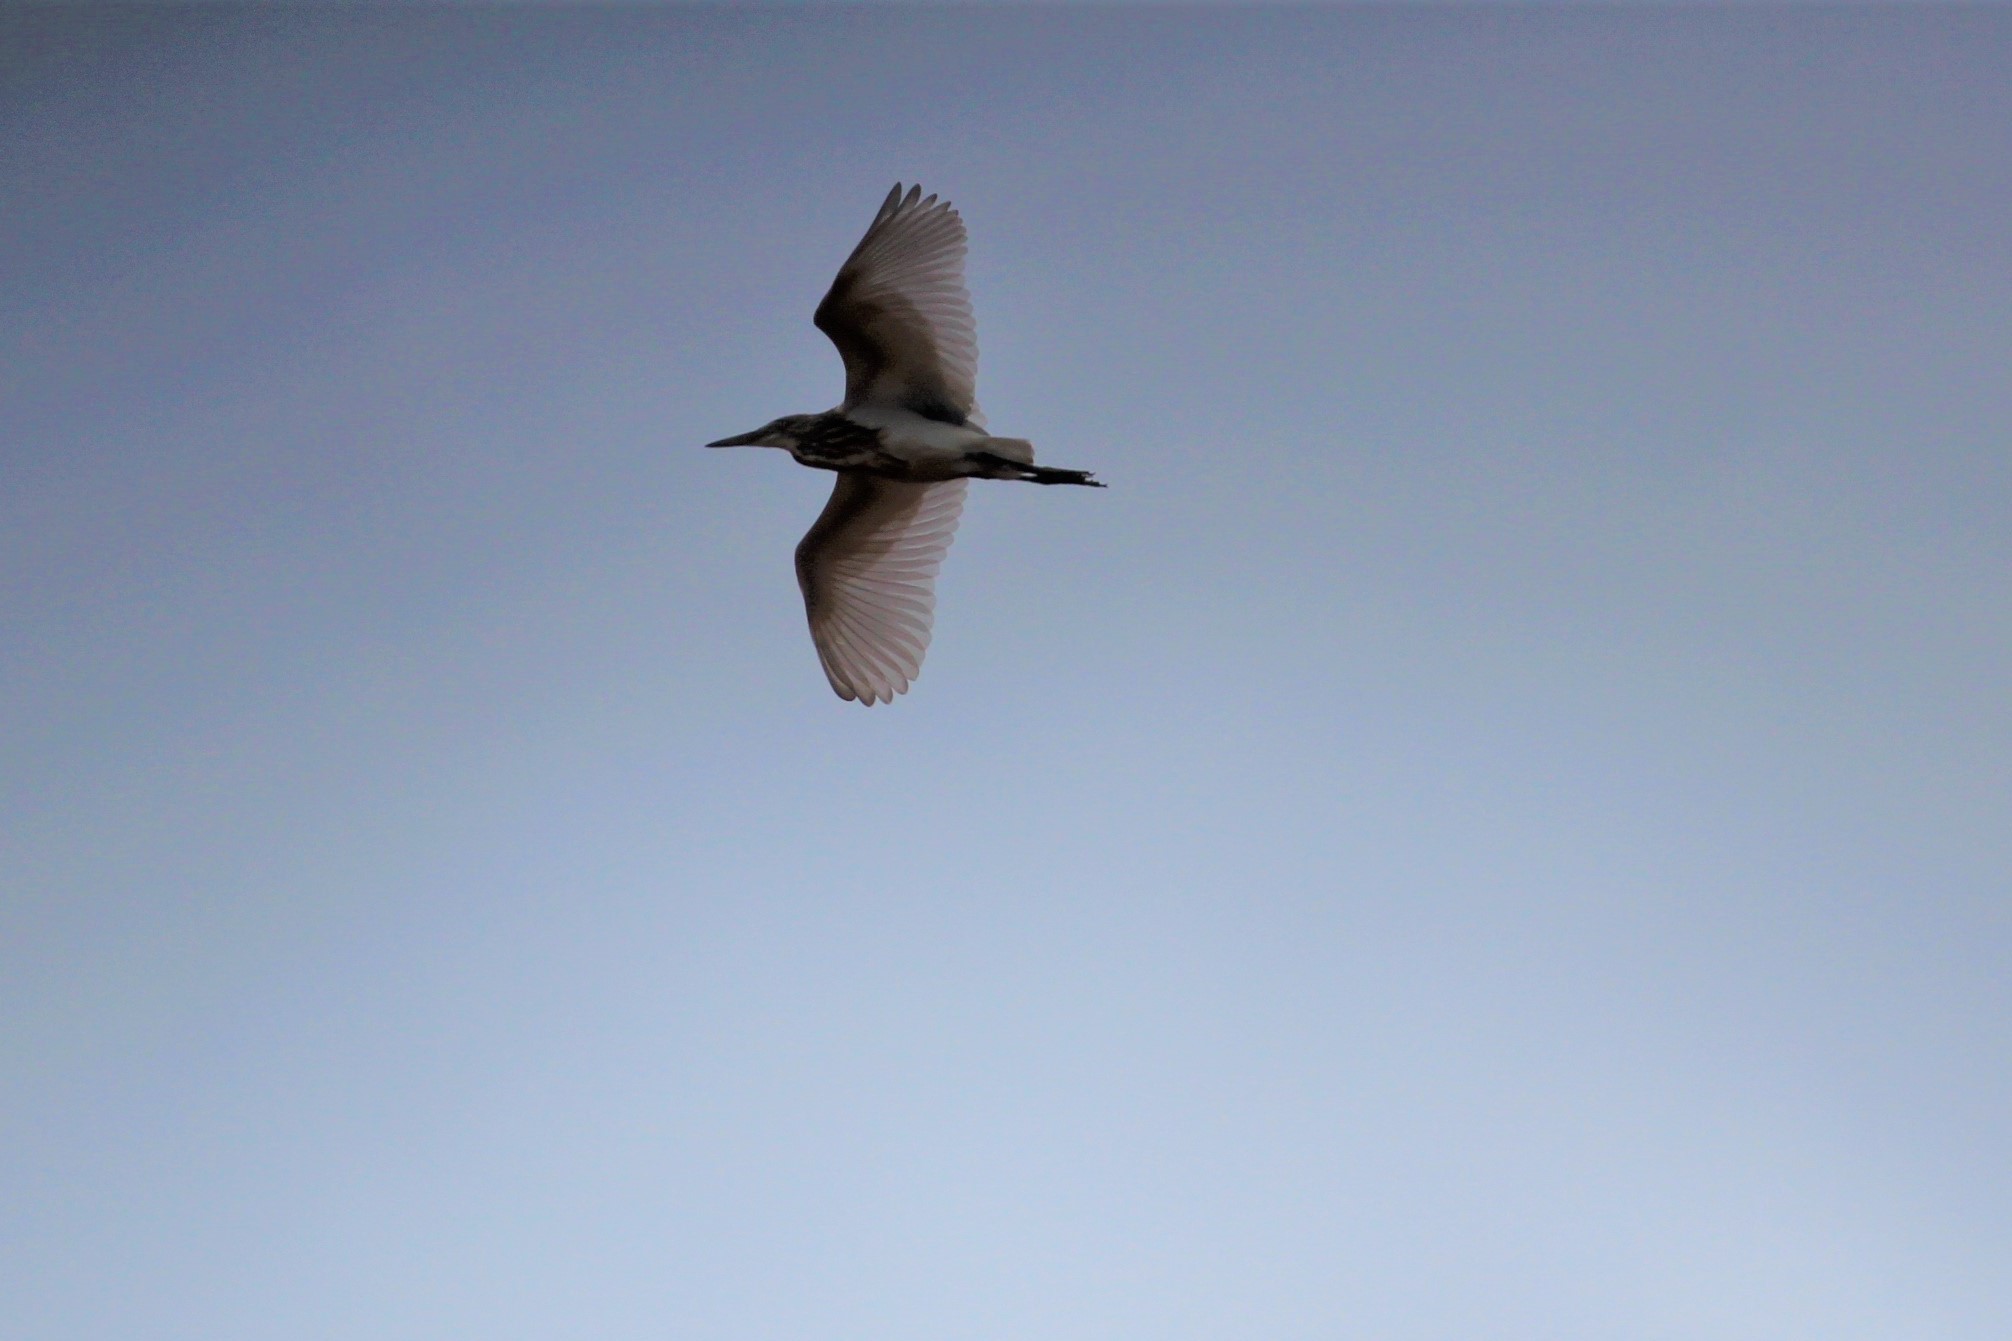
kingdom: Animalia
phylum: Chordata
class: Aves
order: Pelecaniformes
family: Ardeidae
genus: Ardeola
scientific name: Ardeola grayii
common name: Indian pond heron
